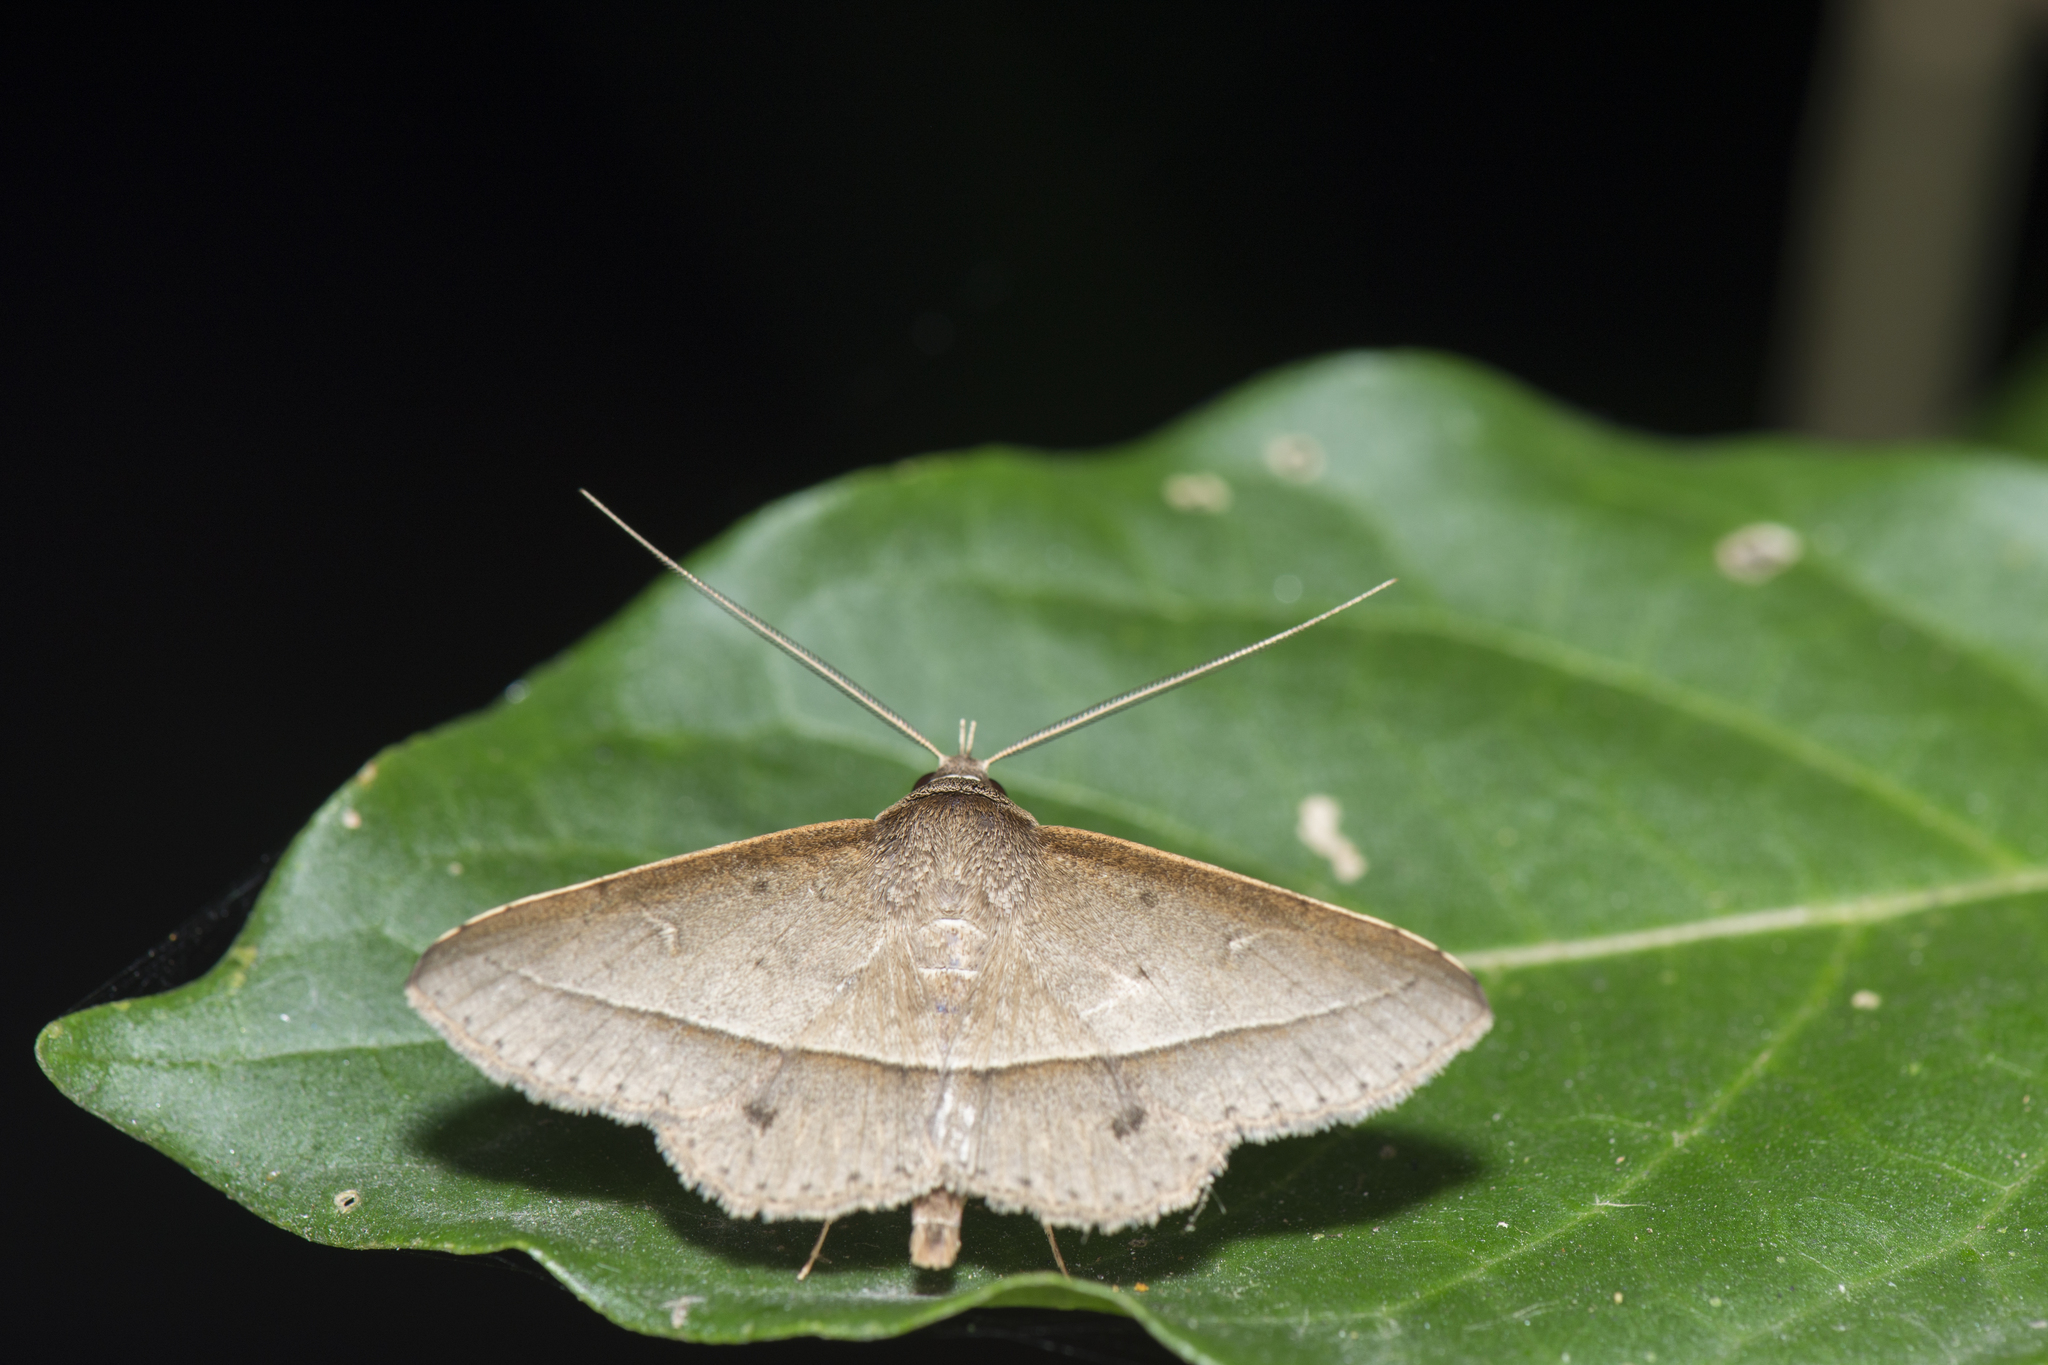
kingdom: Animalia
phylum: Arthropoda
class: Insecta
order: Lepidoptera
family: Erebidae
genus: Hypospila
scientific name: Hypospila creberrima
